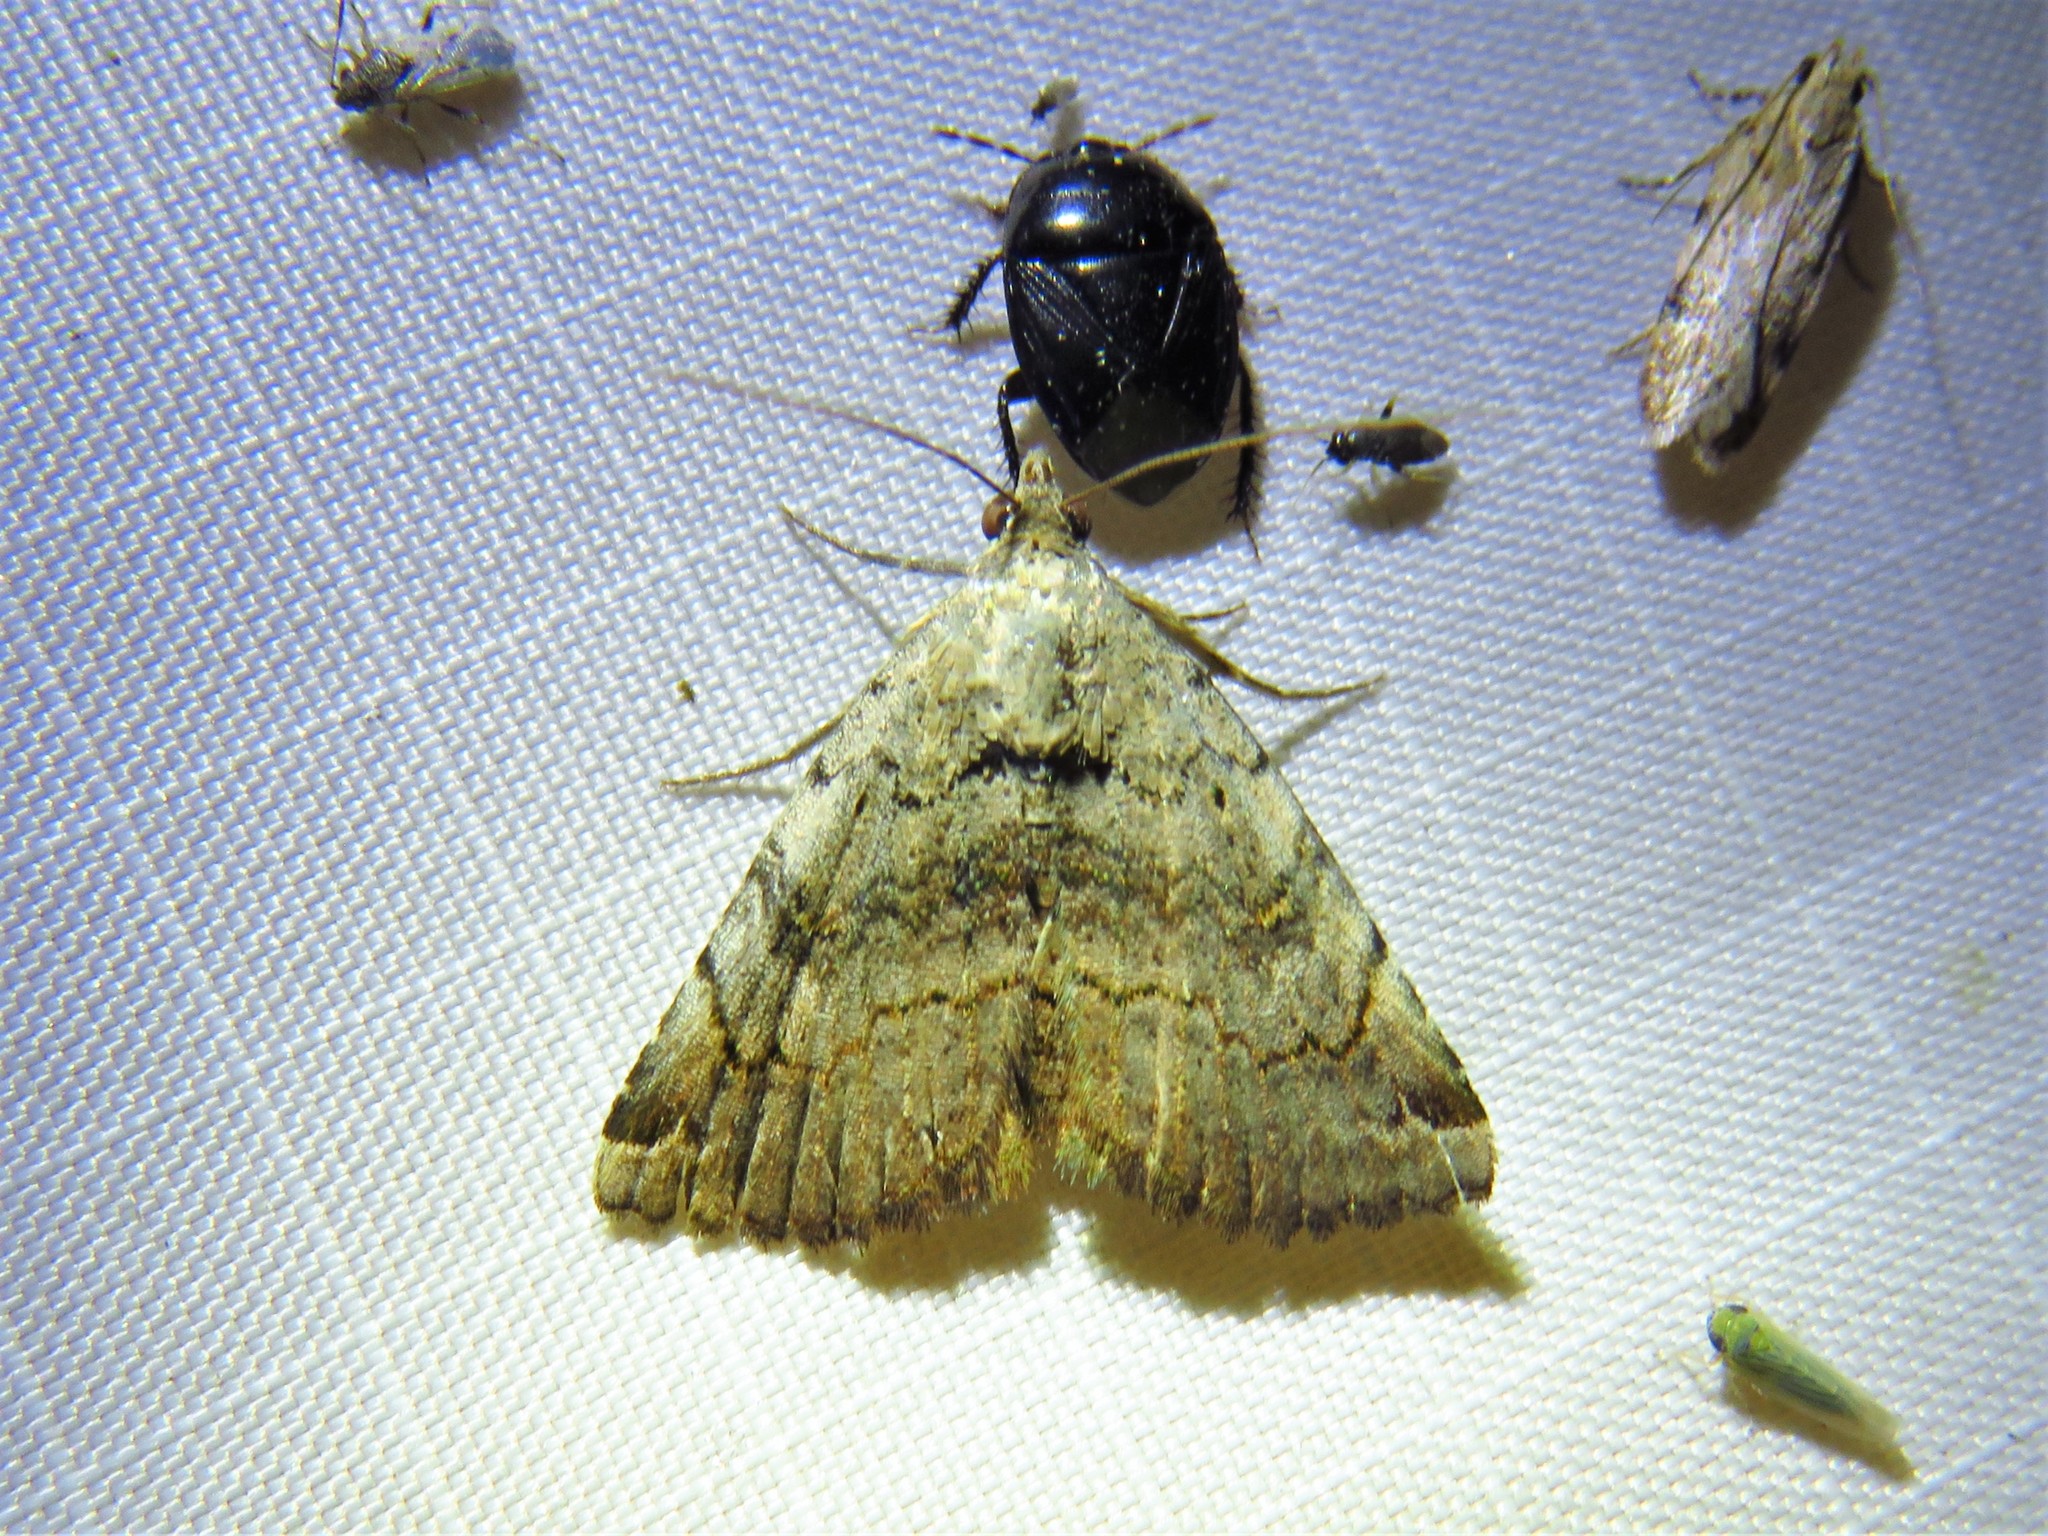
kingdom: Animalia
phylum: Arthropoda
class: Insecta
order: Lepidoptera
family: Erebidae
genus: Toxonprucha
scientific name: Toxonprucha crudelis
